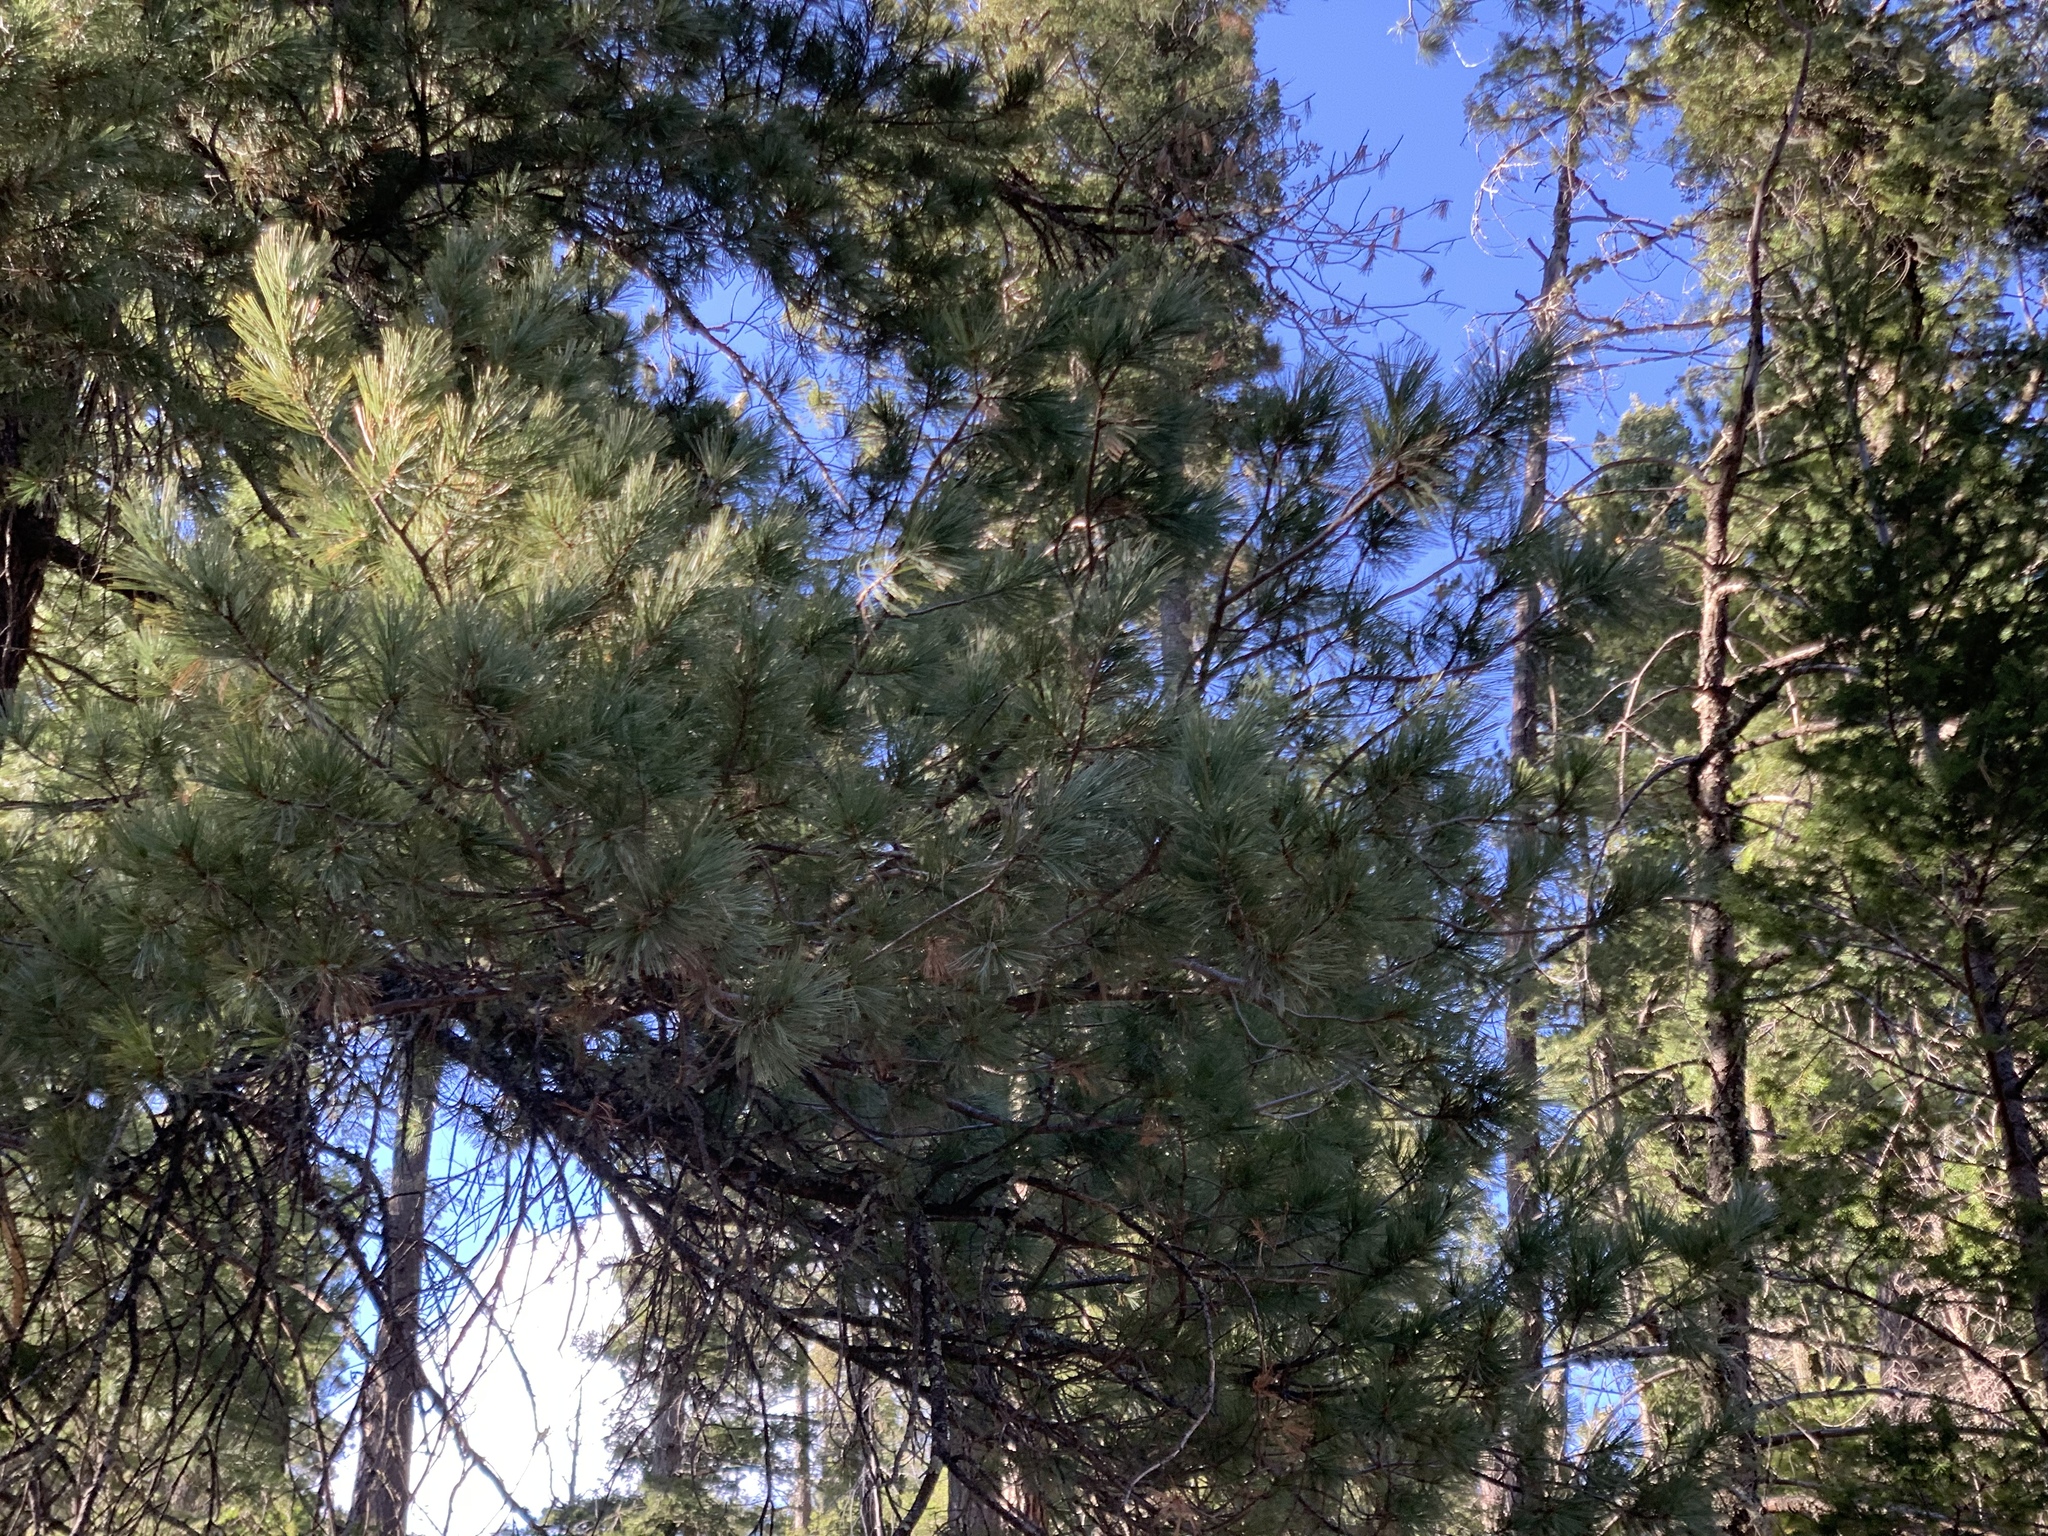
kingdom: Plantae
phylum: Tracheophyta
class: Pinopsida
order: Pinales
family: Pinaceae
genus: Pinus
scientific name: Pinus strobiformis
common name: Southwestern white pine
